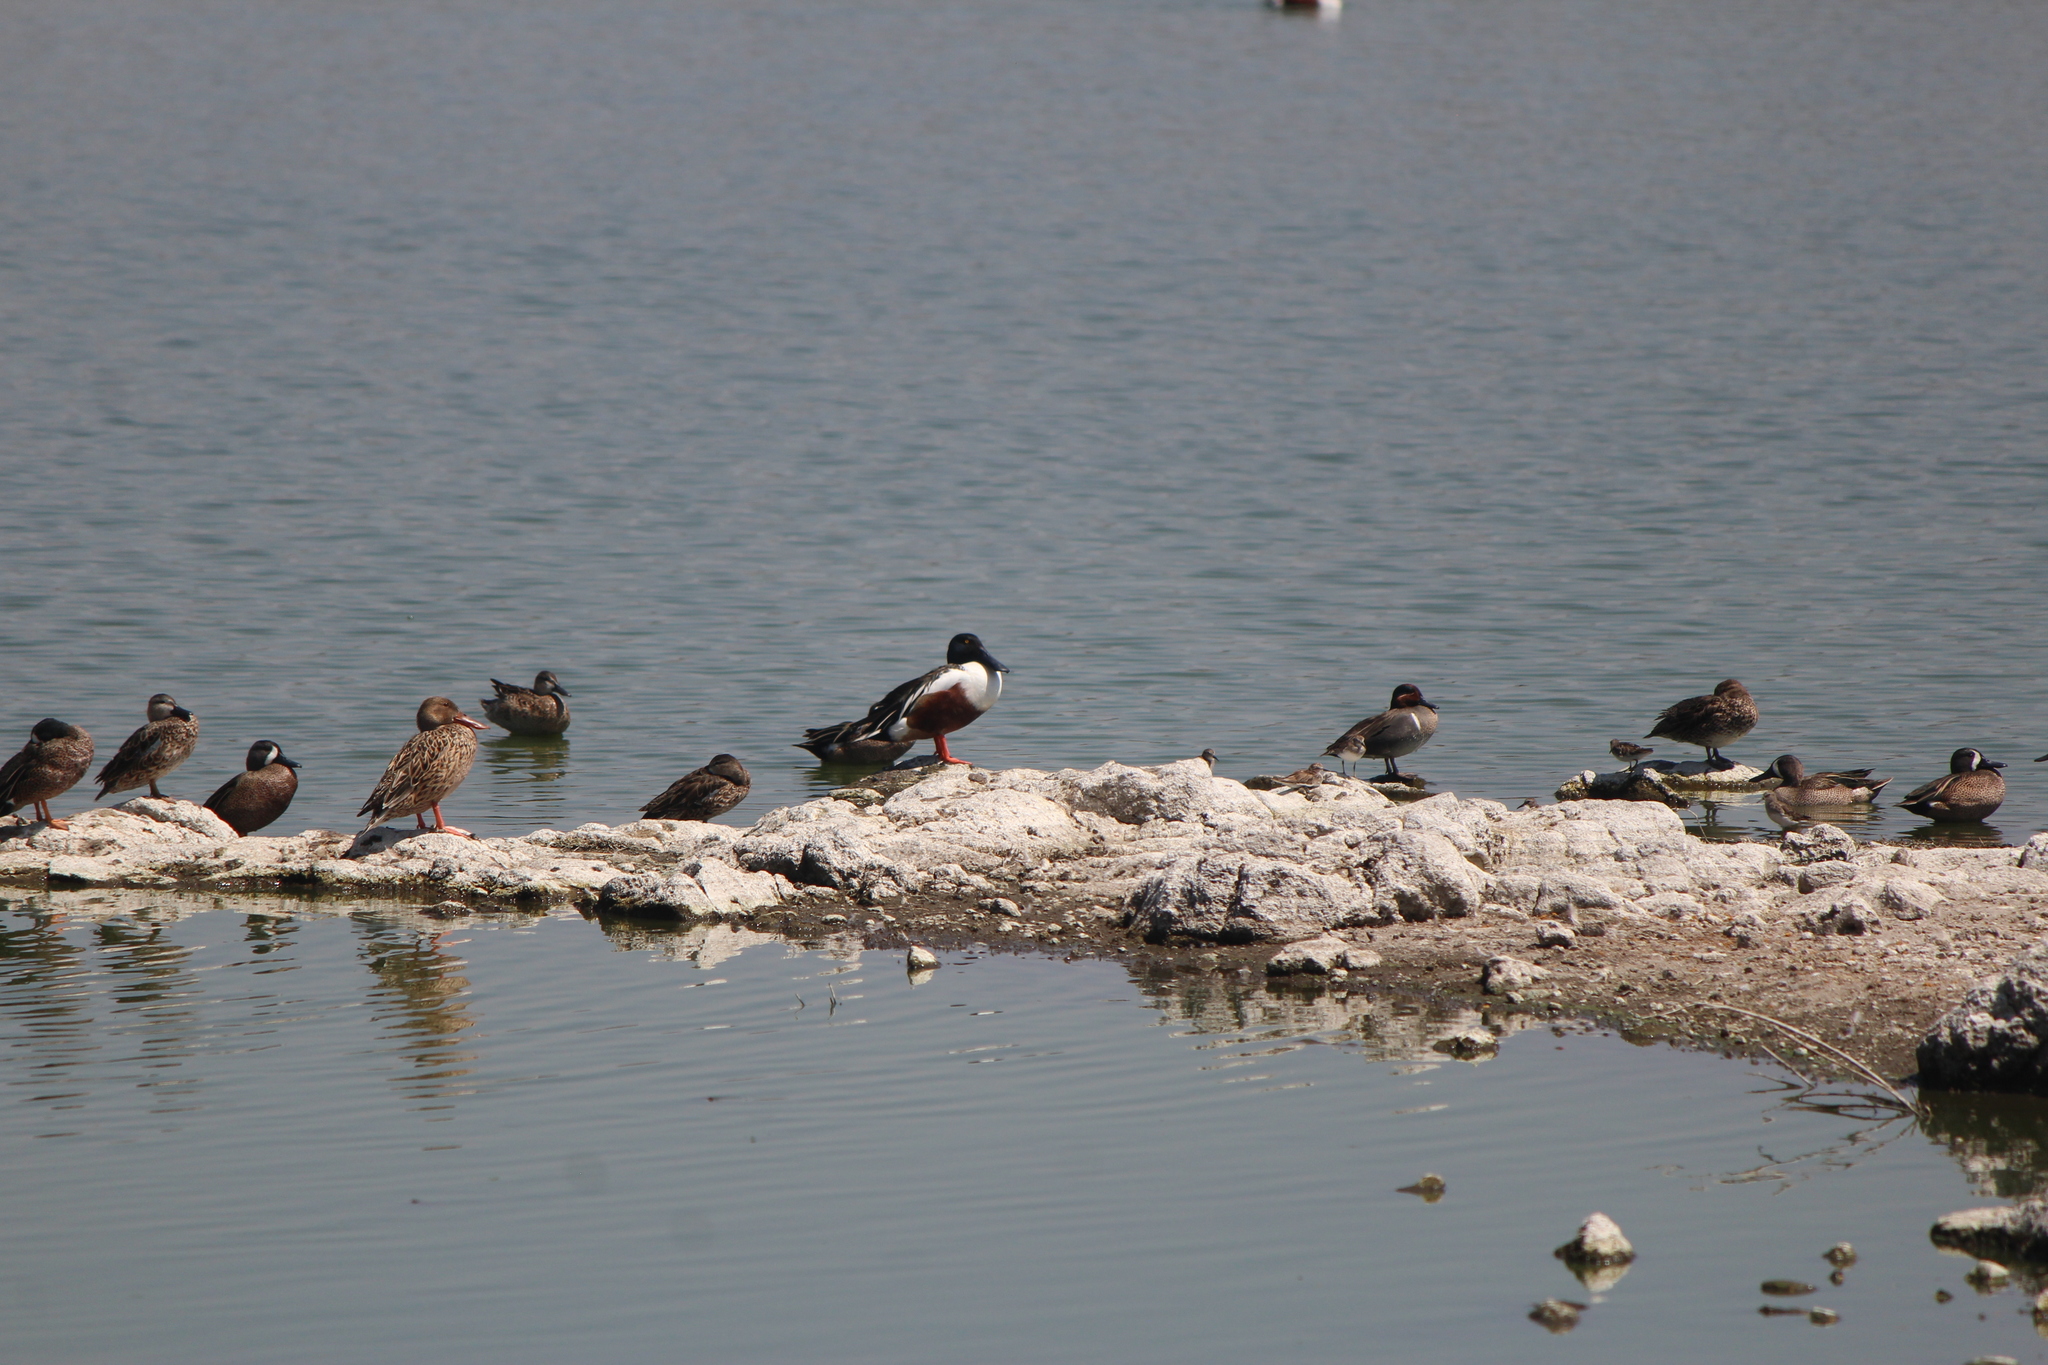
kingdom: Animalia
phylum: Chordata
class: Aves
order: Anseriformes
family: Anatidae
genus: Spatula
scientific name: Spatula clypeata
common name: Northern shoveler
